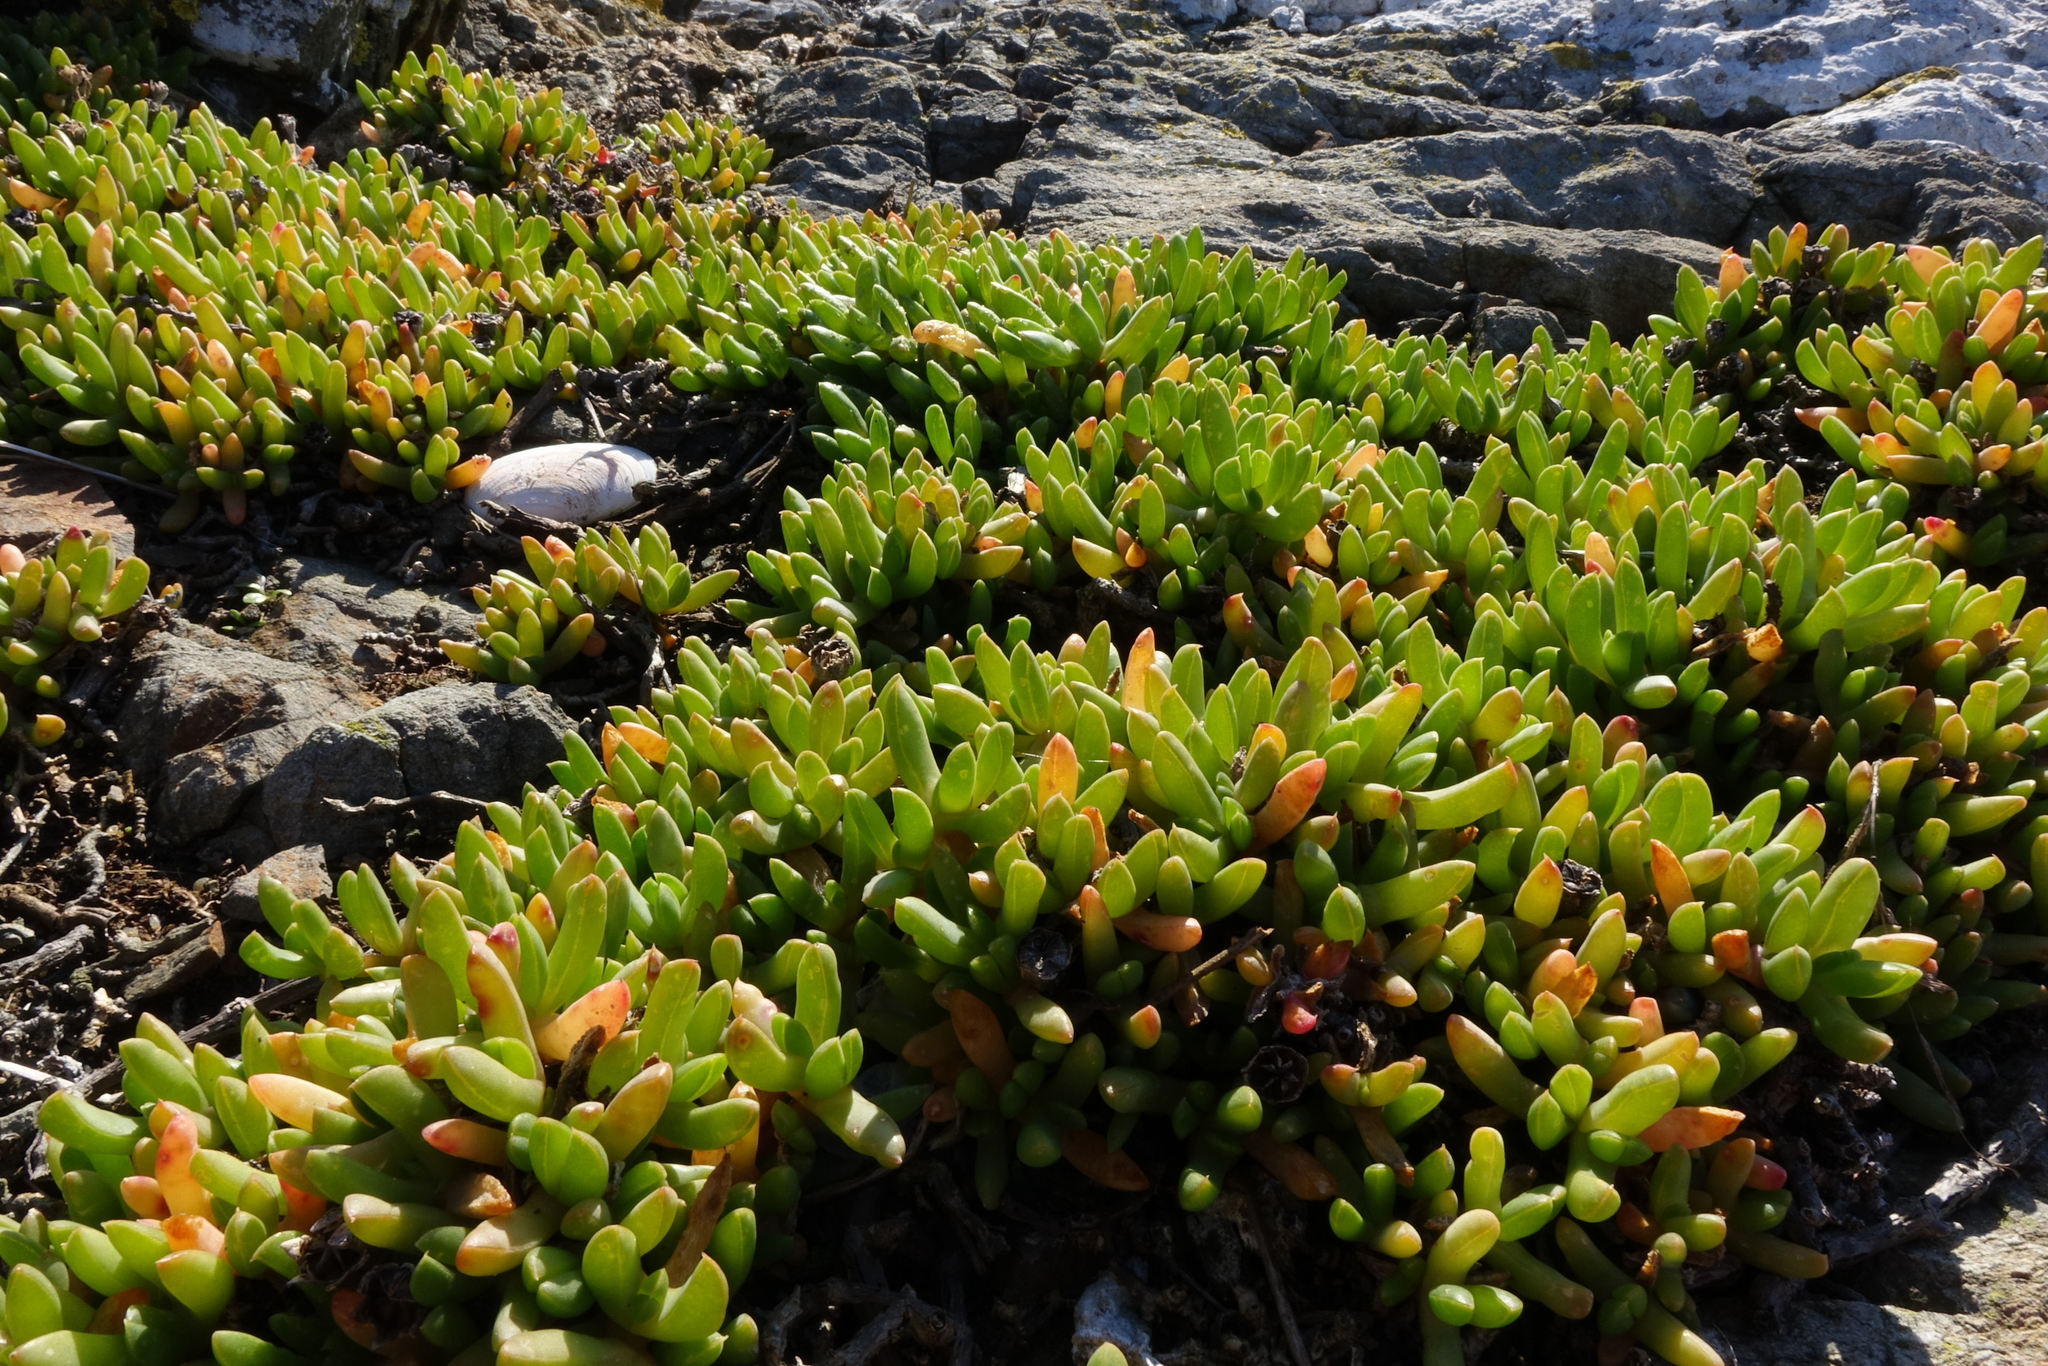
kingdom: Plantae
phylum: Tracheophyta
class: Magnoliopsida
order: Caryophyllales
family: Aizoaceae
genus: Disphyma
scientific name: Disphyma australe
